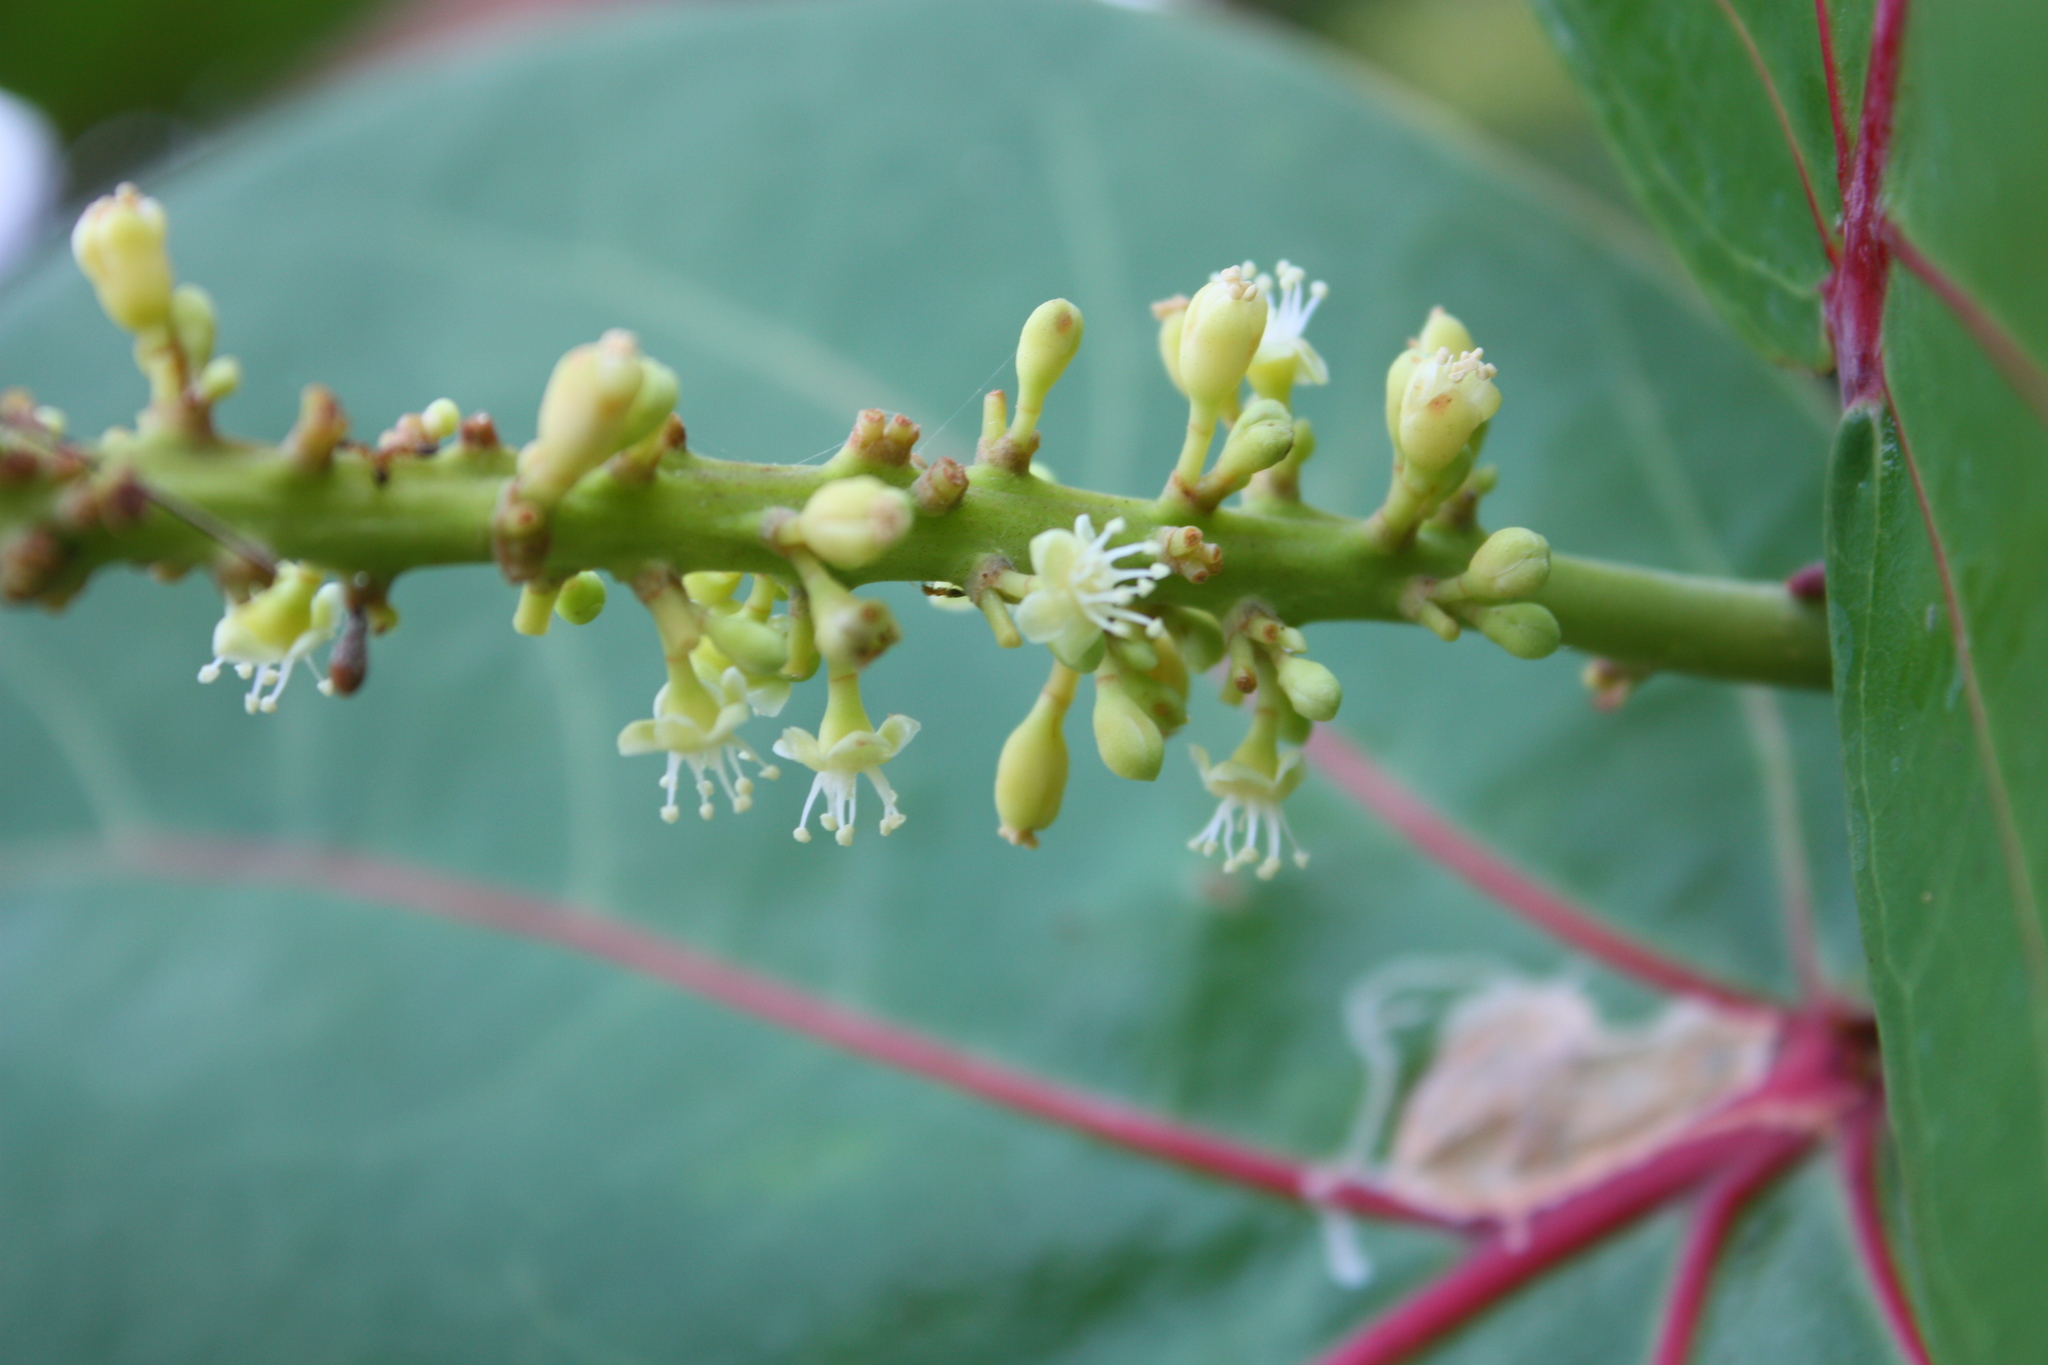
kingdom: Plantae
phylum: Tracheophyta
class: Magnoliopsida
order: Myrtales
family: Combretaceae
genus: Terminalia
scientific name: Terminalia catappa
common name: Tropical almond
